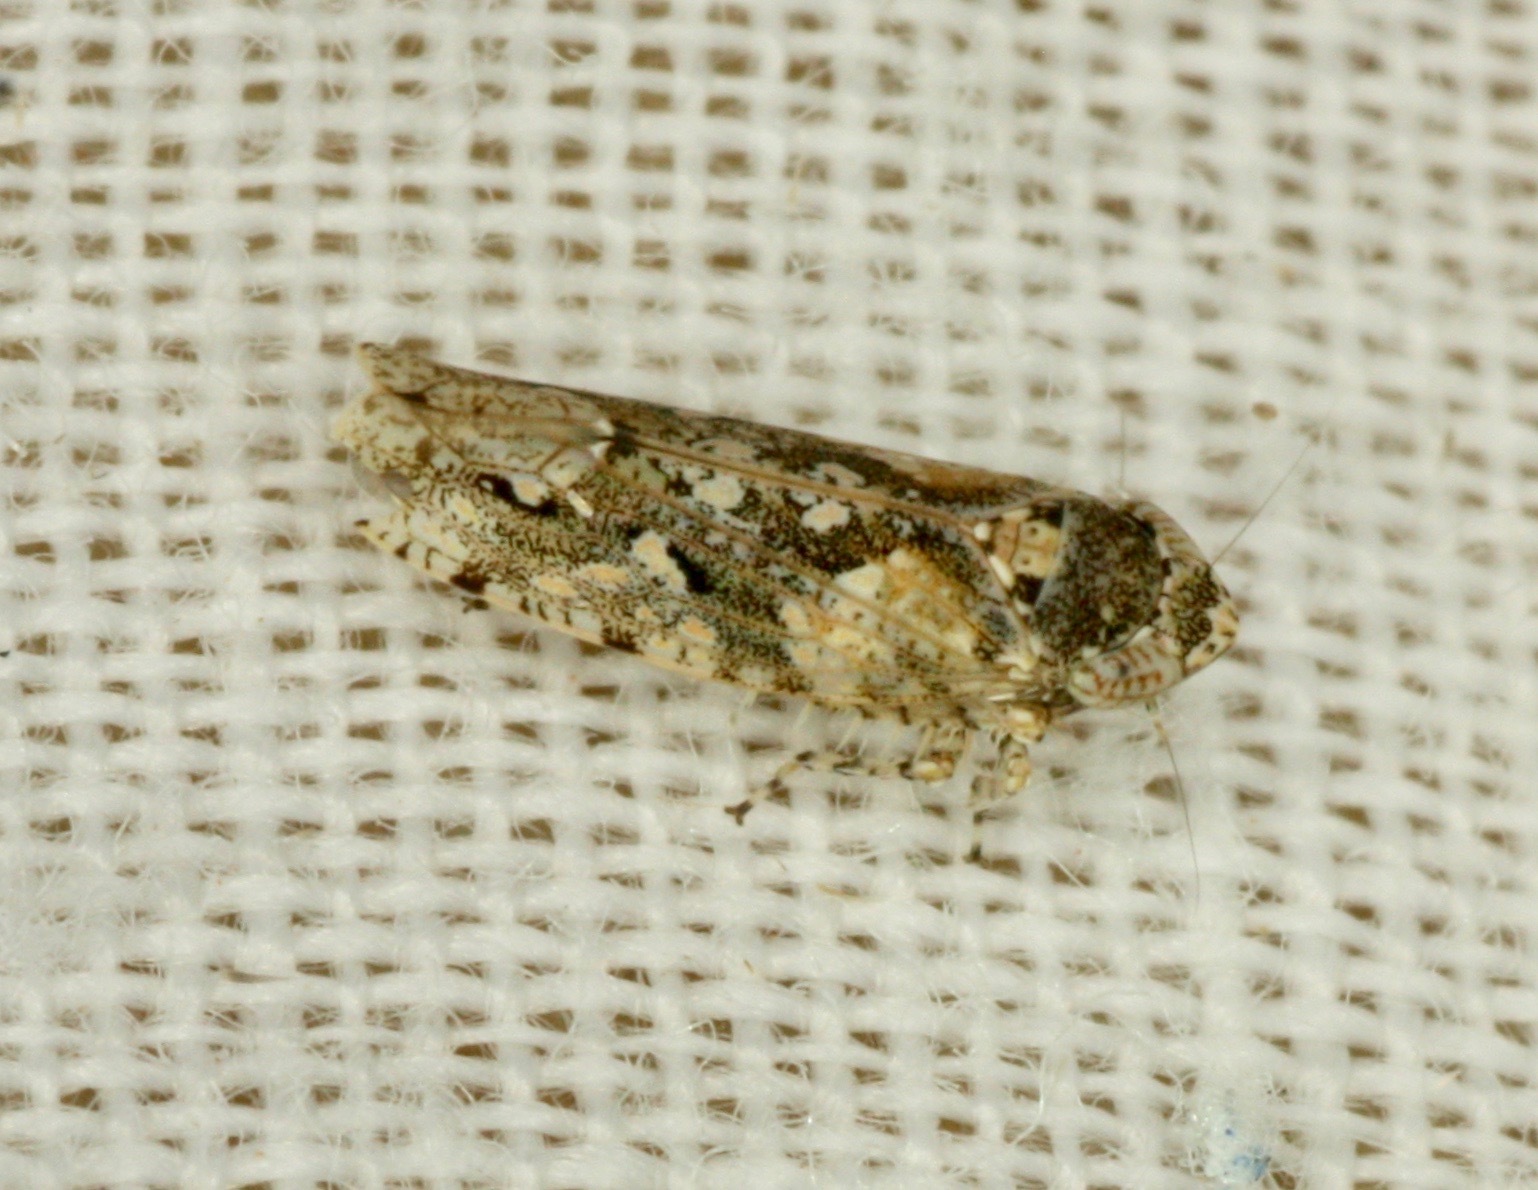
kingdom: Animalia
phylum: Arthropoda
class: Insecta
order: Hemiptera
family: Cicadellidae
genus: Dixianus
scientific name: Dixianus utahnus
